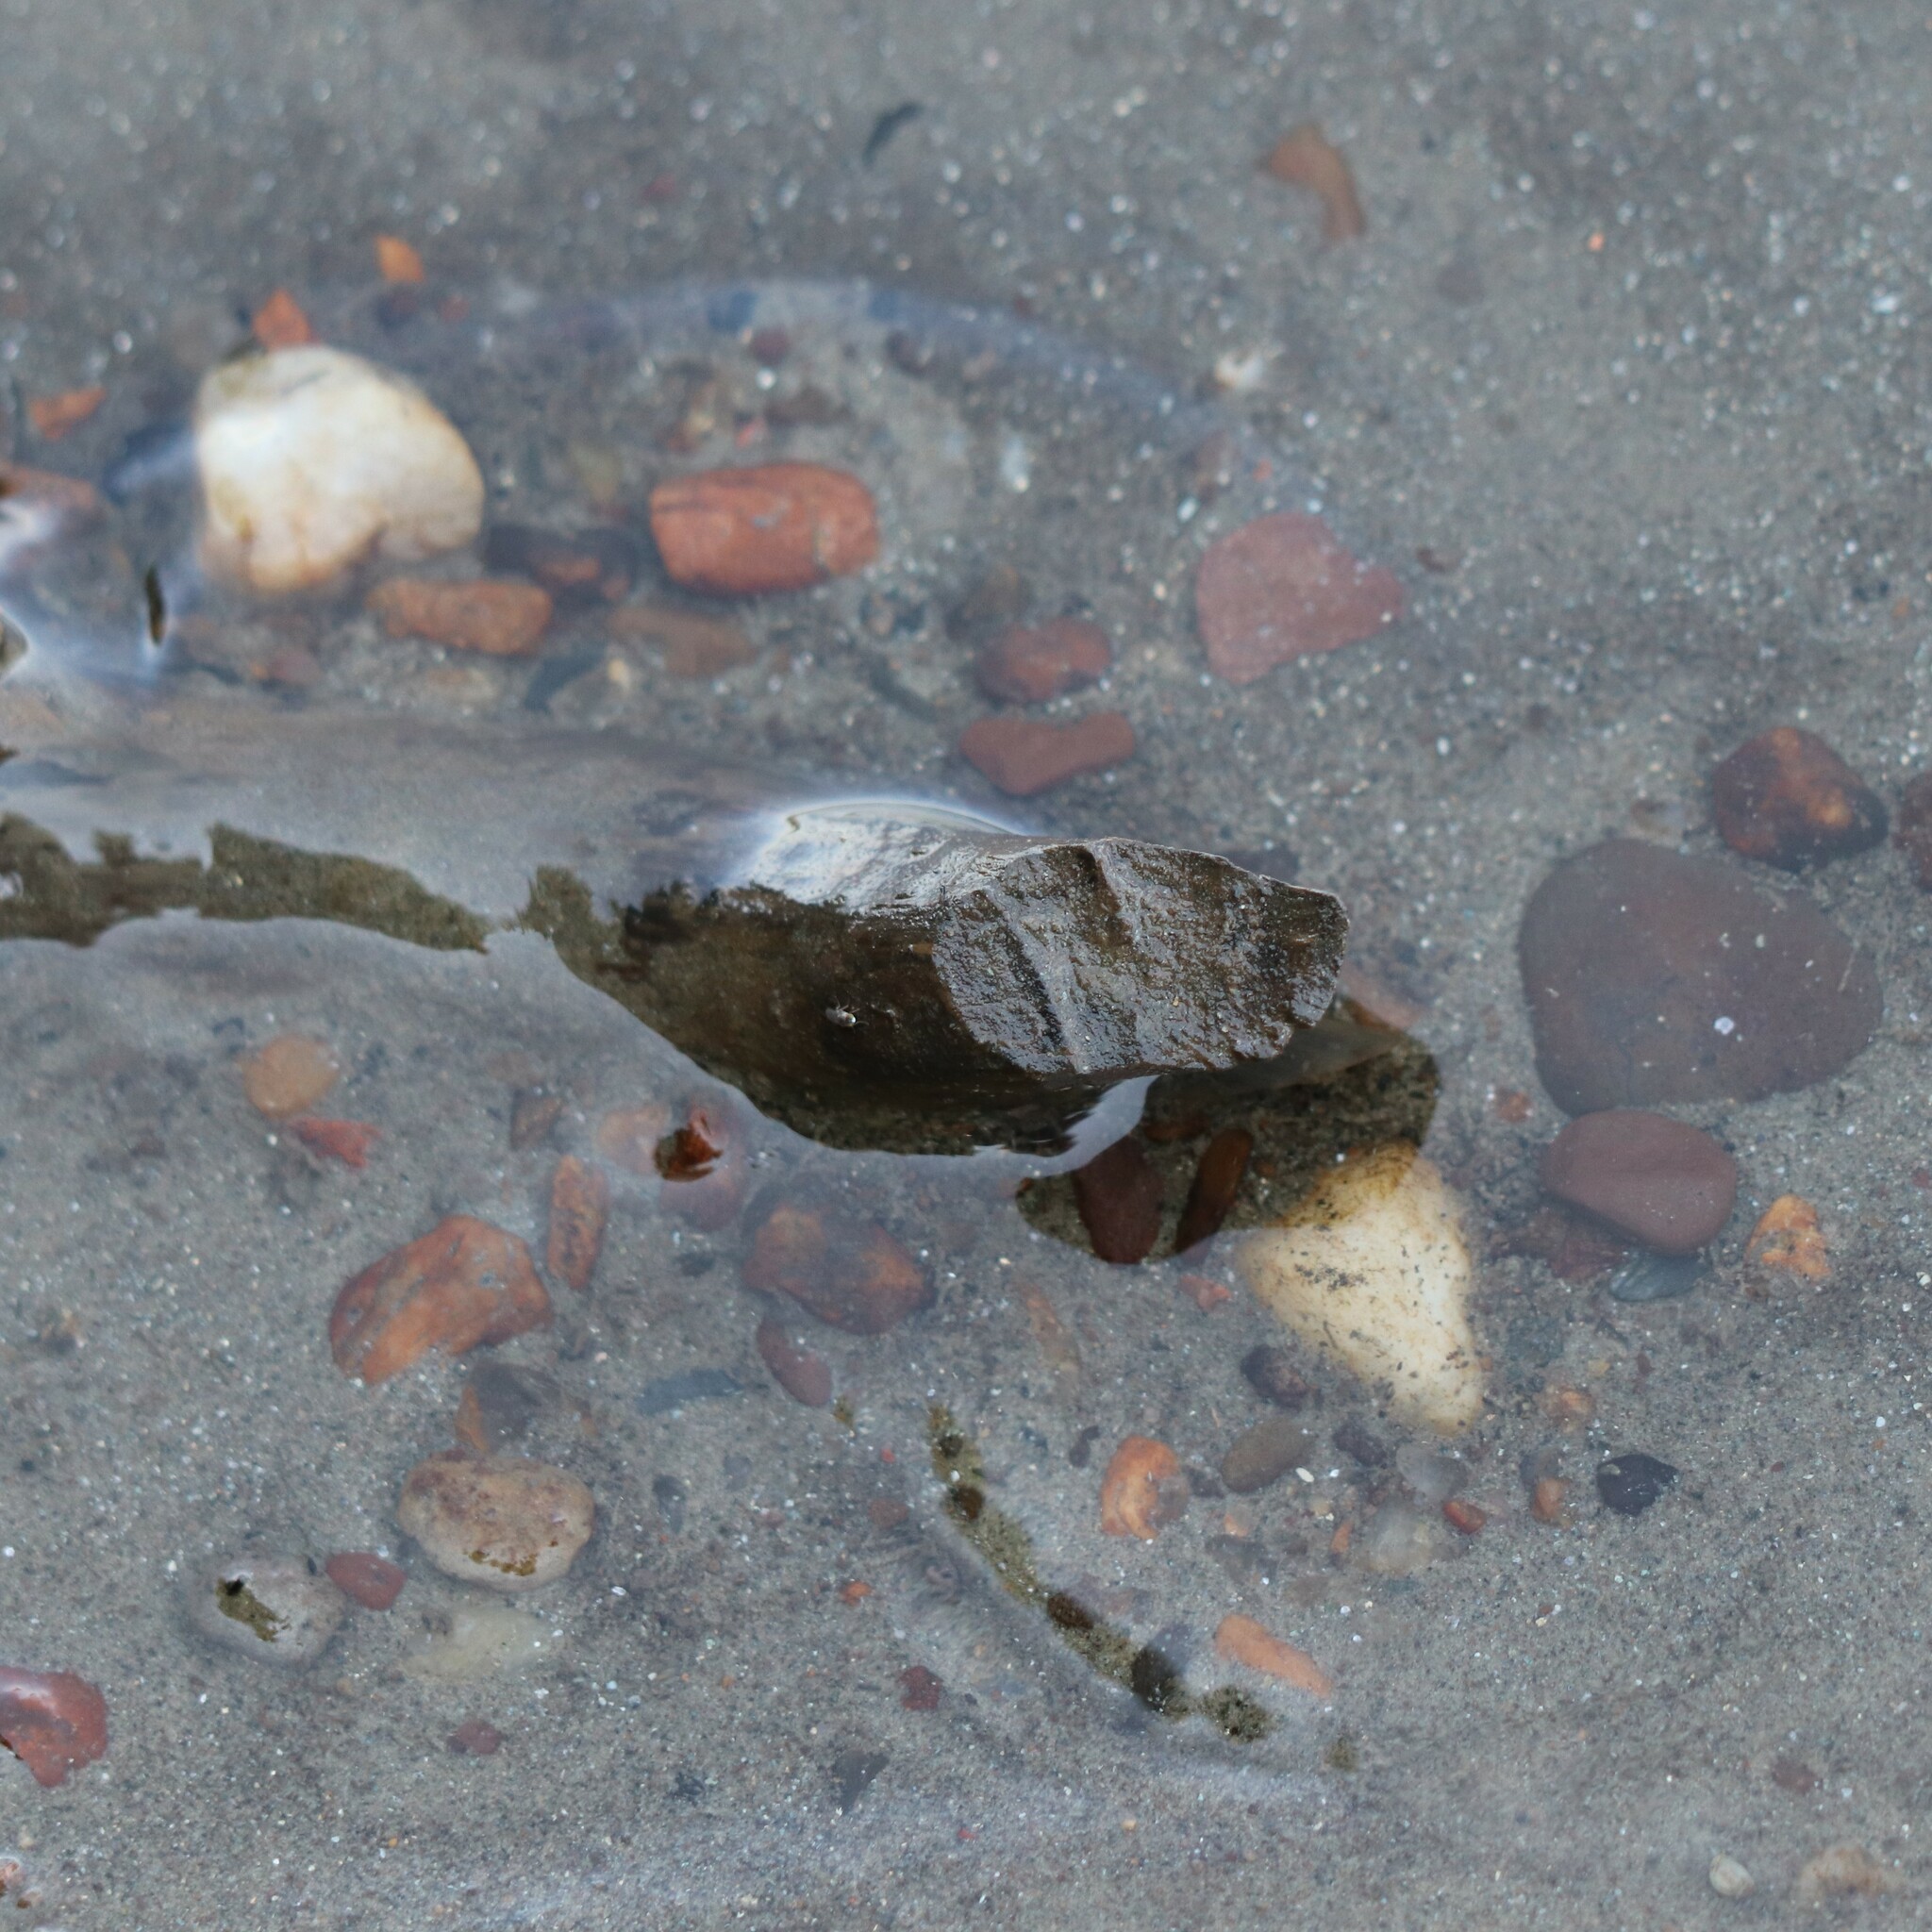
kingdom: Animalia
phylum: Chordata
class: Mammalia
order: Rodentia
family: Castoridae
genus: Castor
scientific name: Castor canadensis
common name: American beaver
